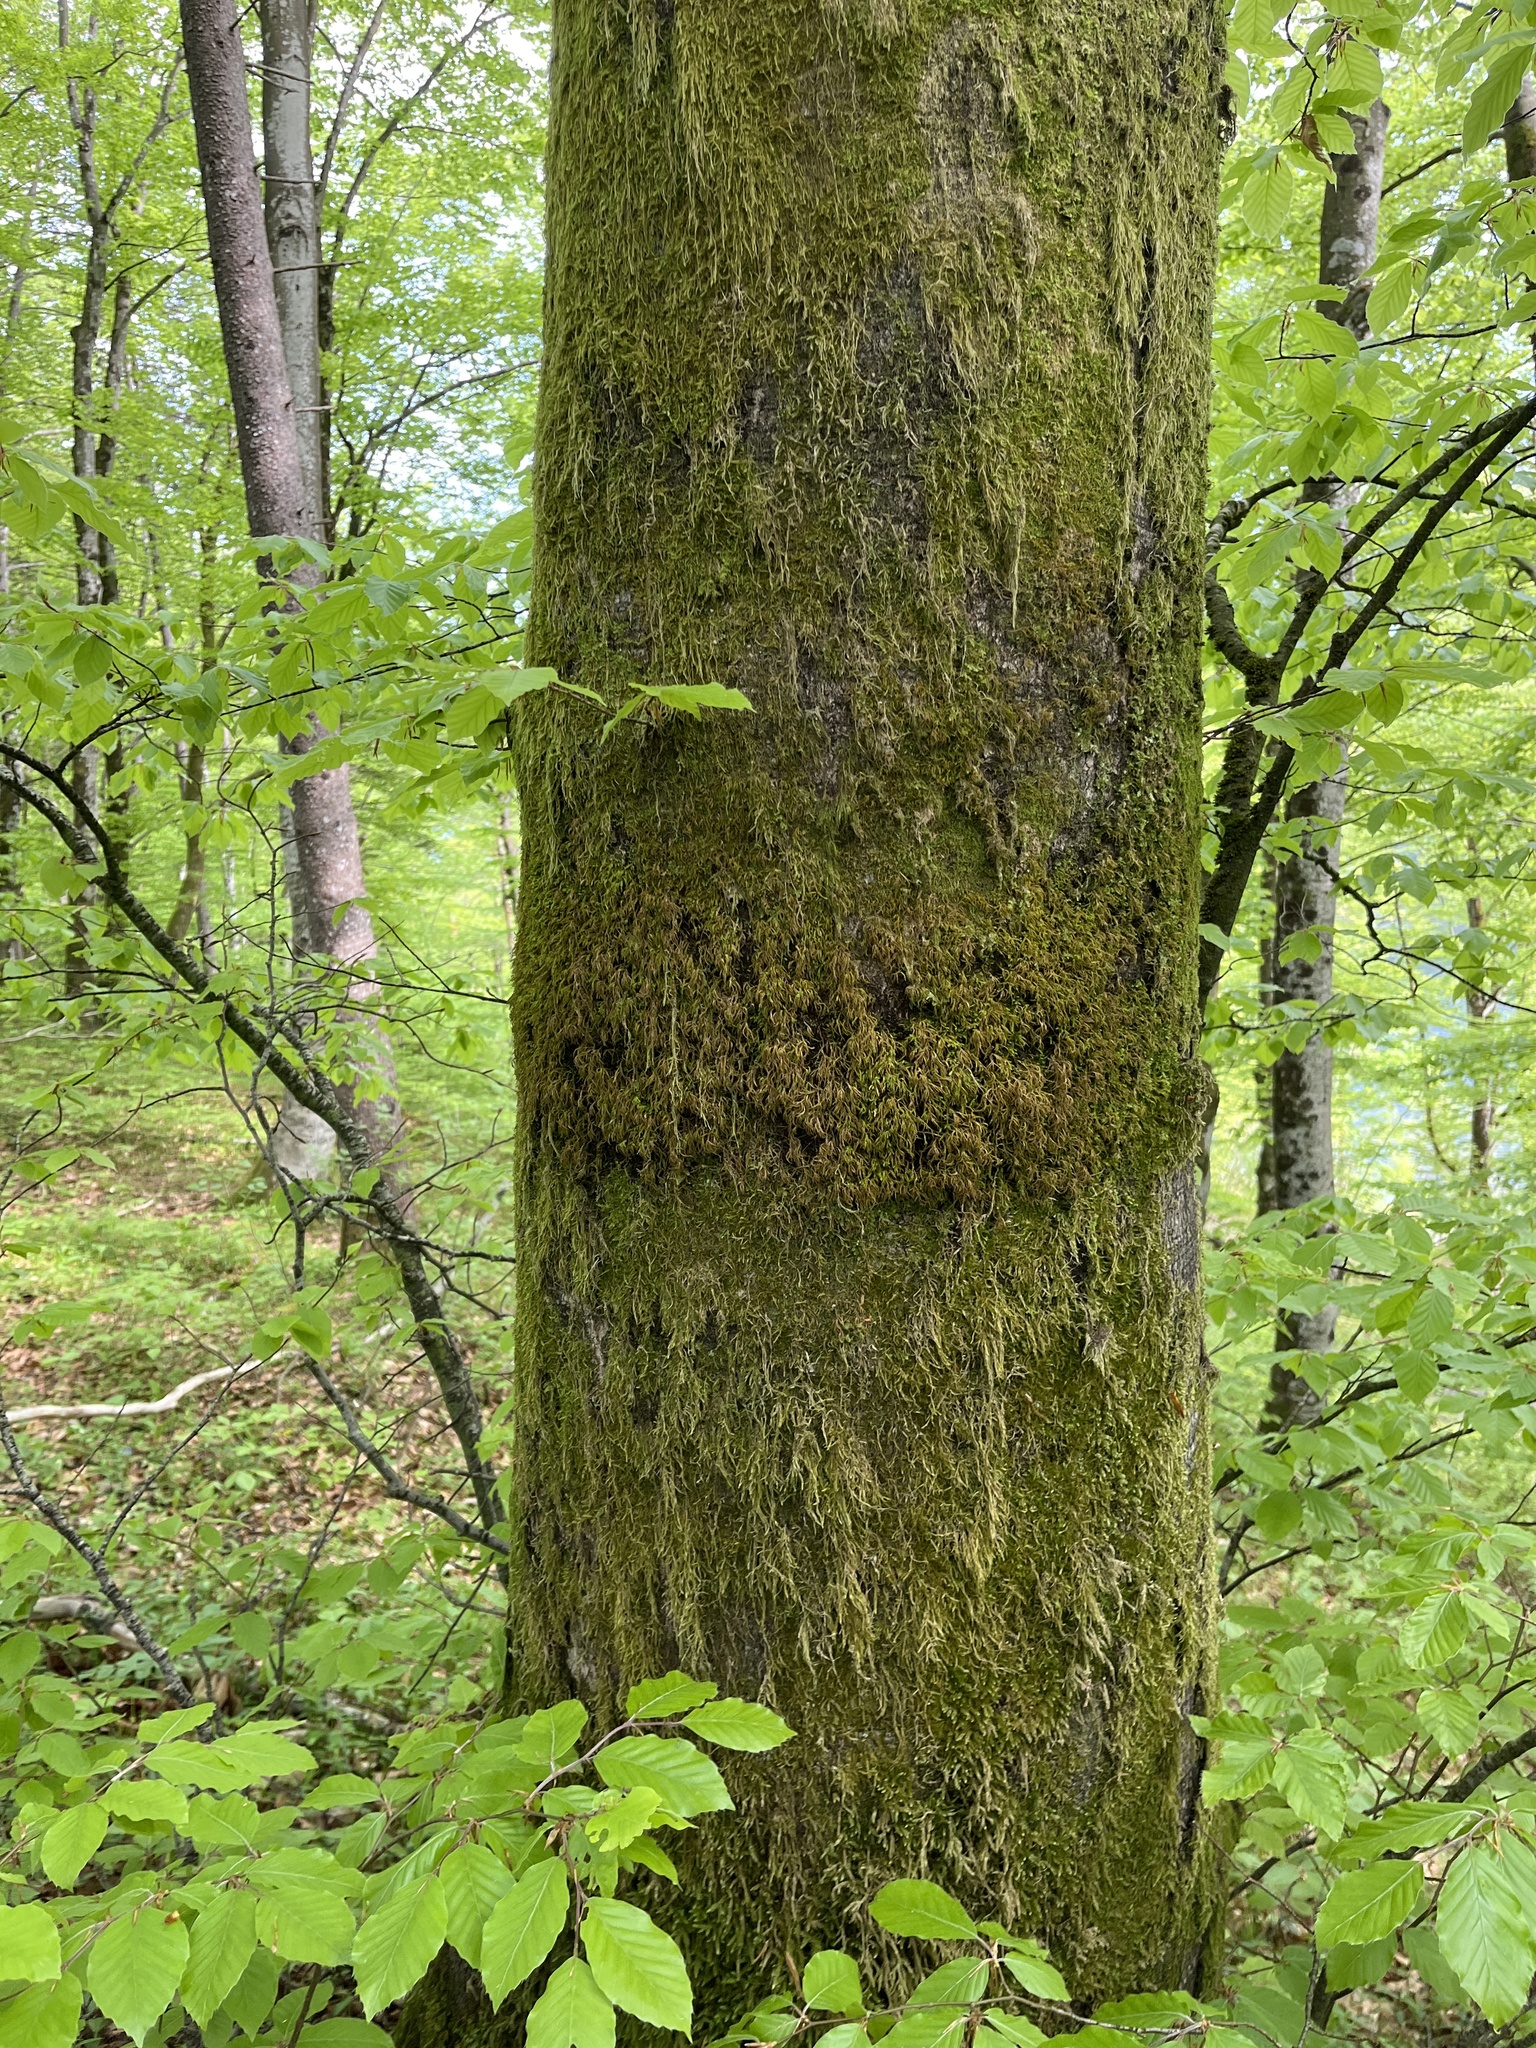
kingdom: Plantae
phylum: Bryophyta
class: Bryopsida
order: Hypnales
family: Neckeraceae
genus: Pseudanomodon
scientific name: Pseudanomodon attenuatus
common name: Tree-skirt moss
